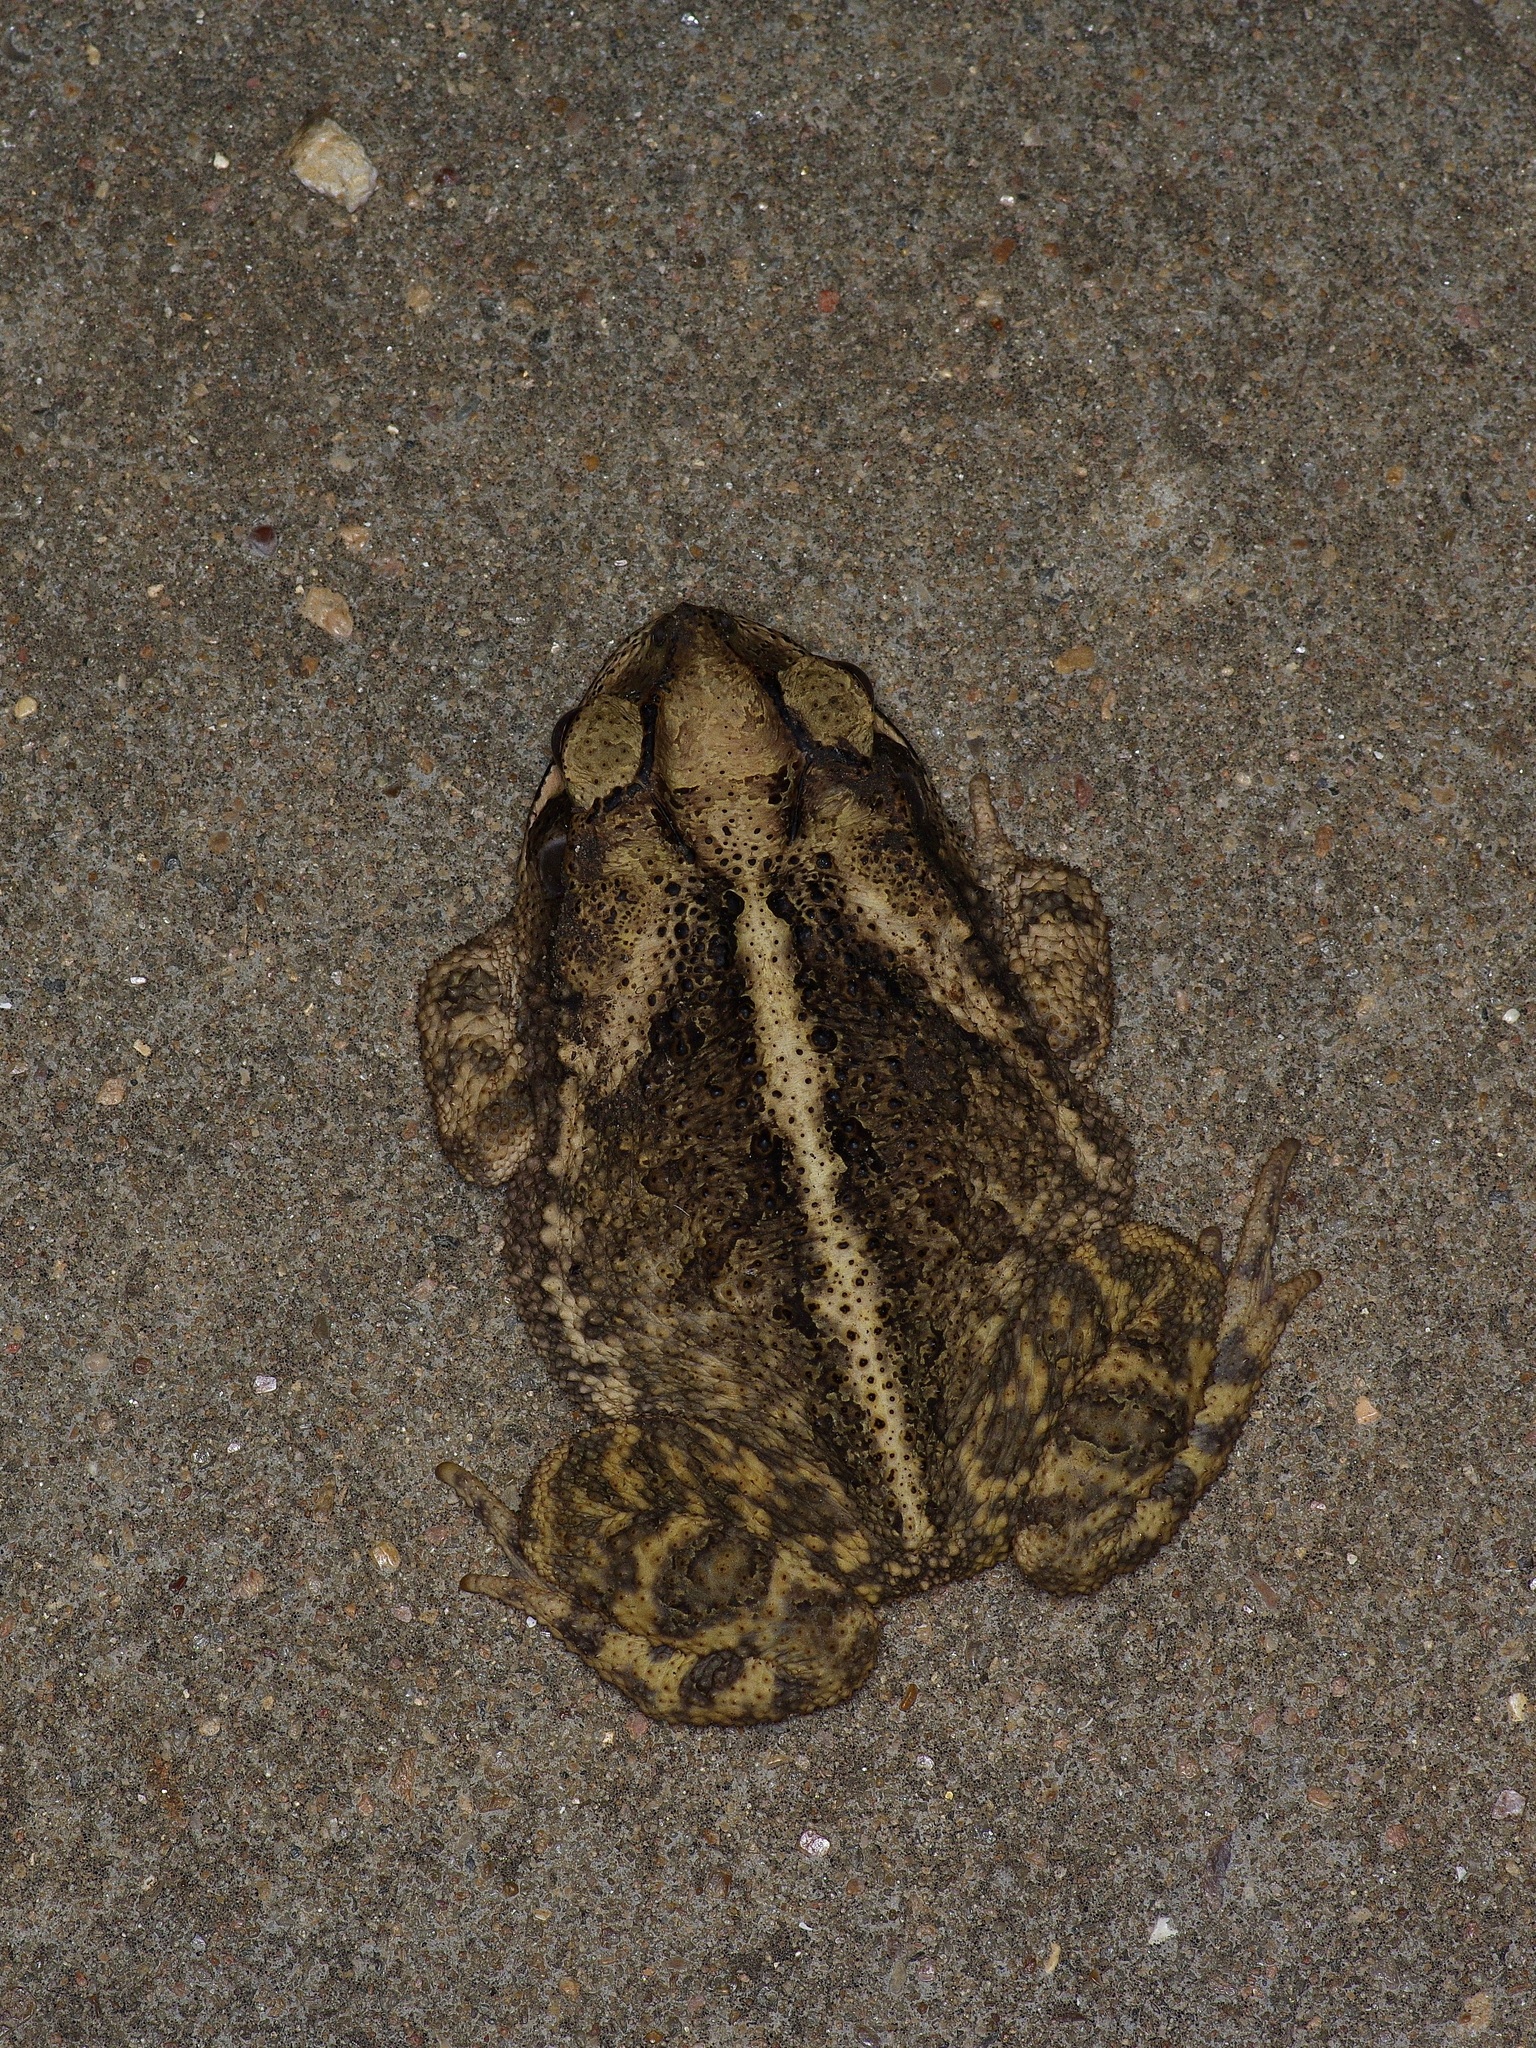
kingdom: Animalia
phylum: Chordata
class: Amphibia
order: Anura
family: Bufonidae
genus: Incilius
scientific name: Incilius nebulifer
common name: Gulf coast toad
